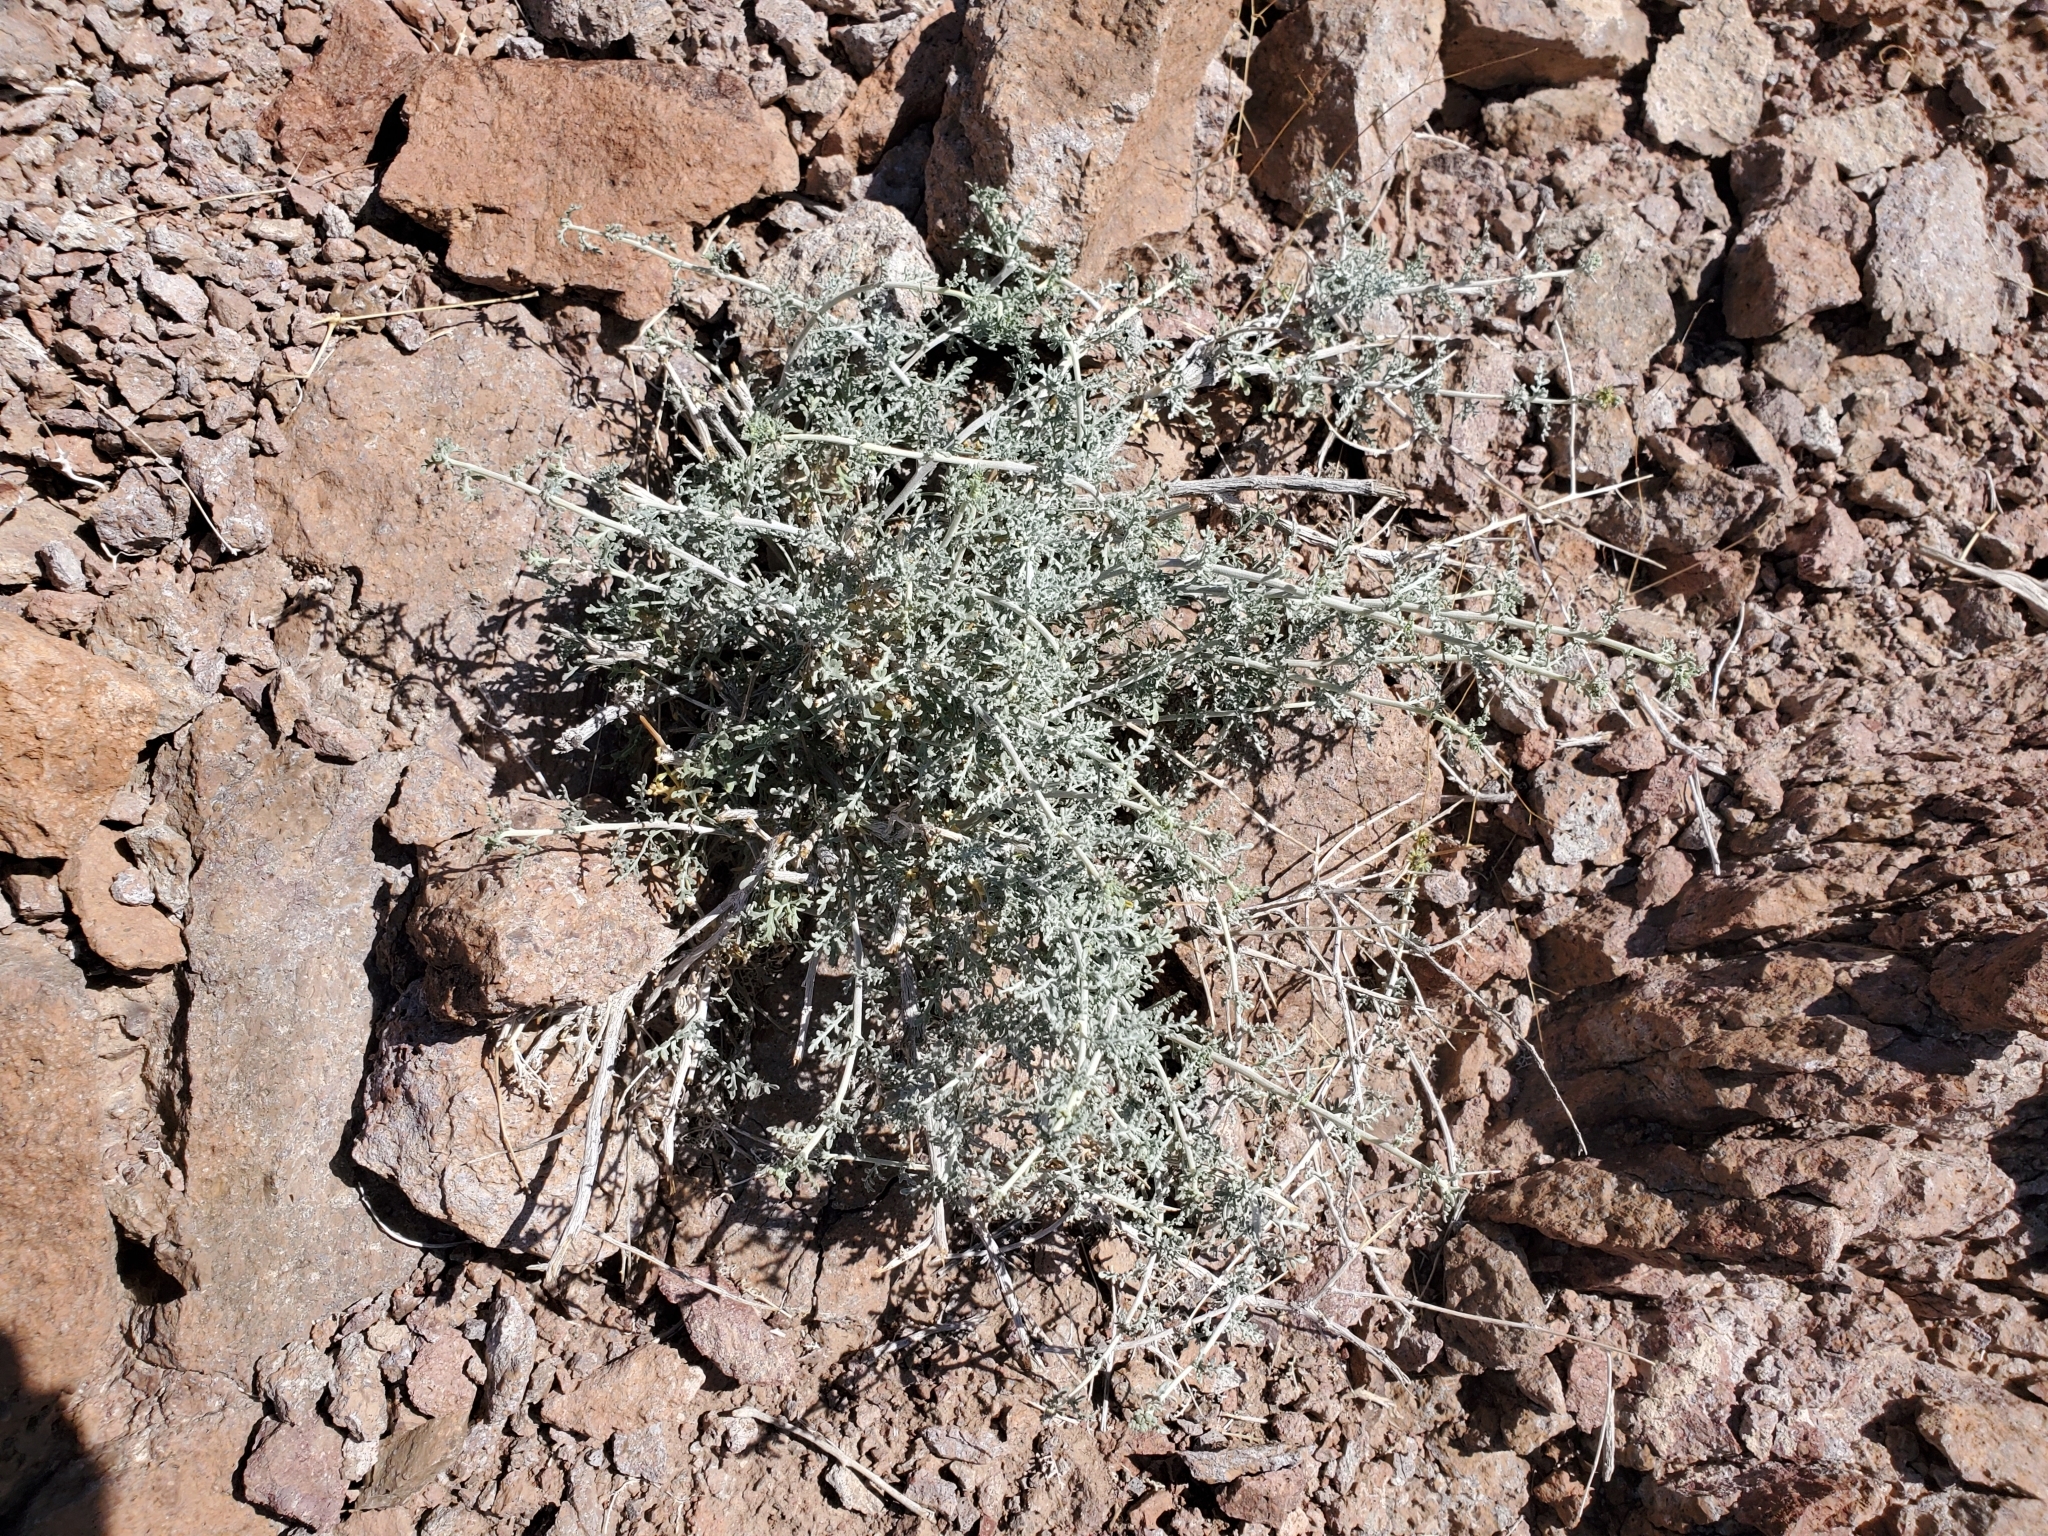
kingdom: Plantae
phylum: Tracheophyta
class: Magnoliopsida
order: Asterales
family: Asteraceae
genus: Ambrosia
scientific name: Ambrosia dumosa
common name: Bur-sage
